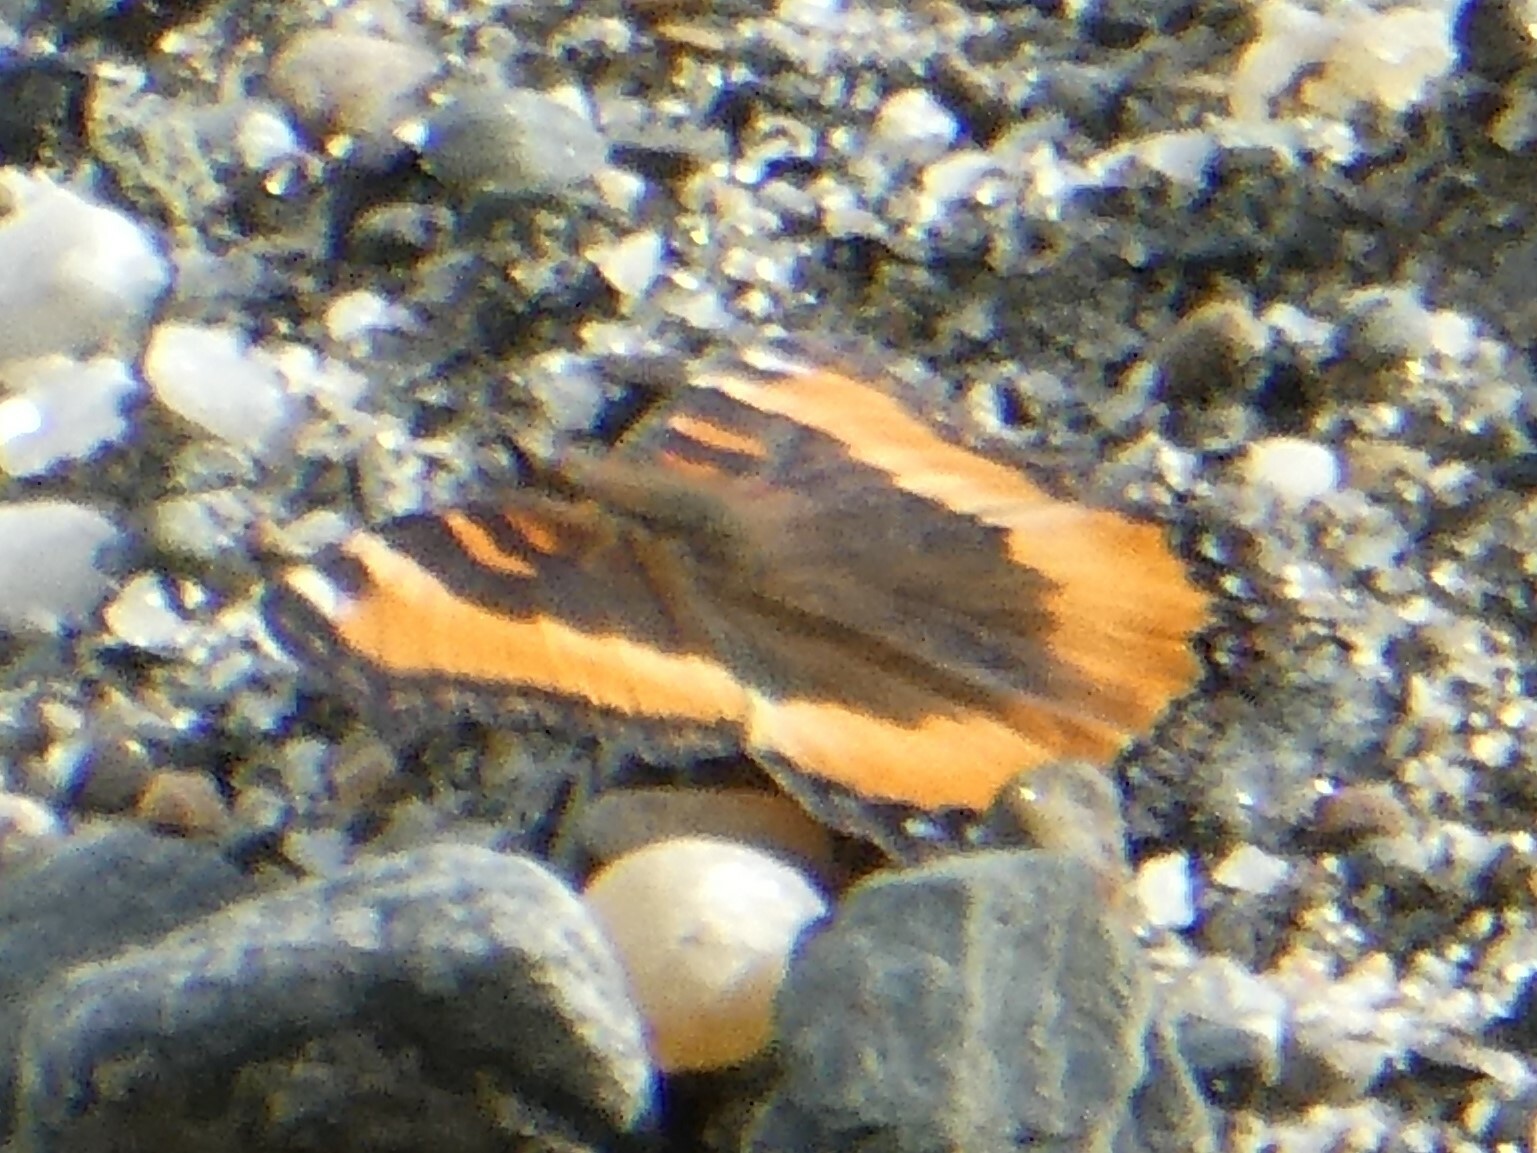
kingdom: Animalia
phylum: Arthropoda
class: Insecta
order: Lepidoptera
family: Nymphalidae
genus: Aglais
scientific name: Aglais milberti
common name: Milbert's tortoiseshell
